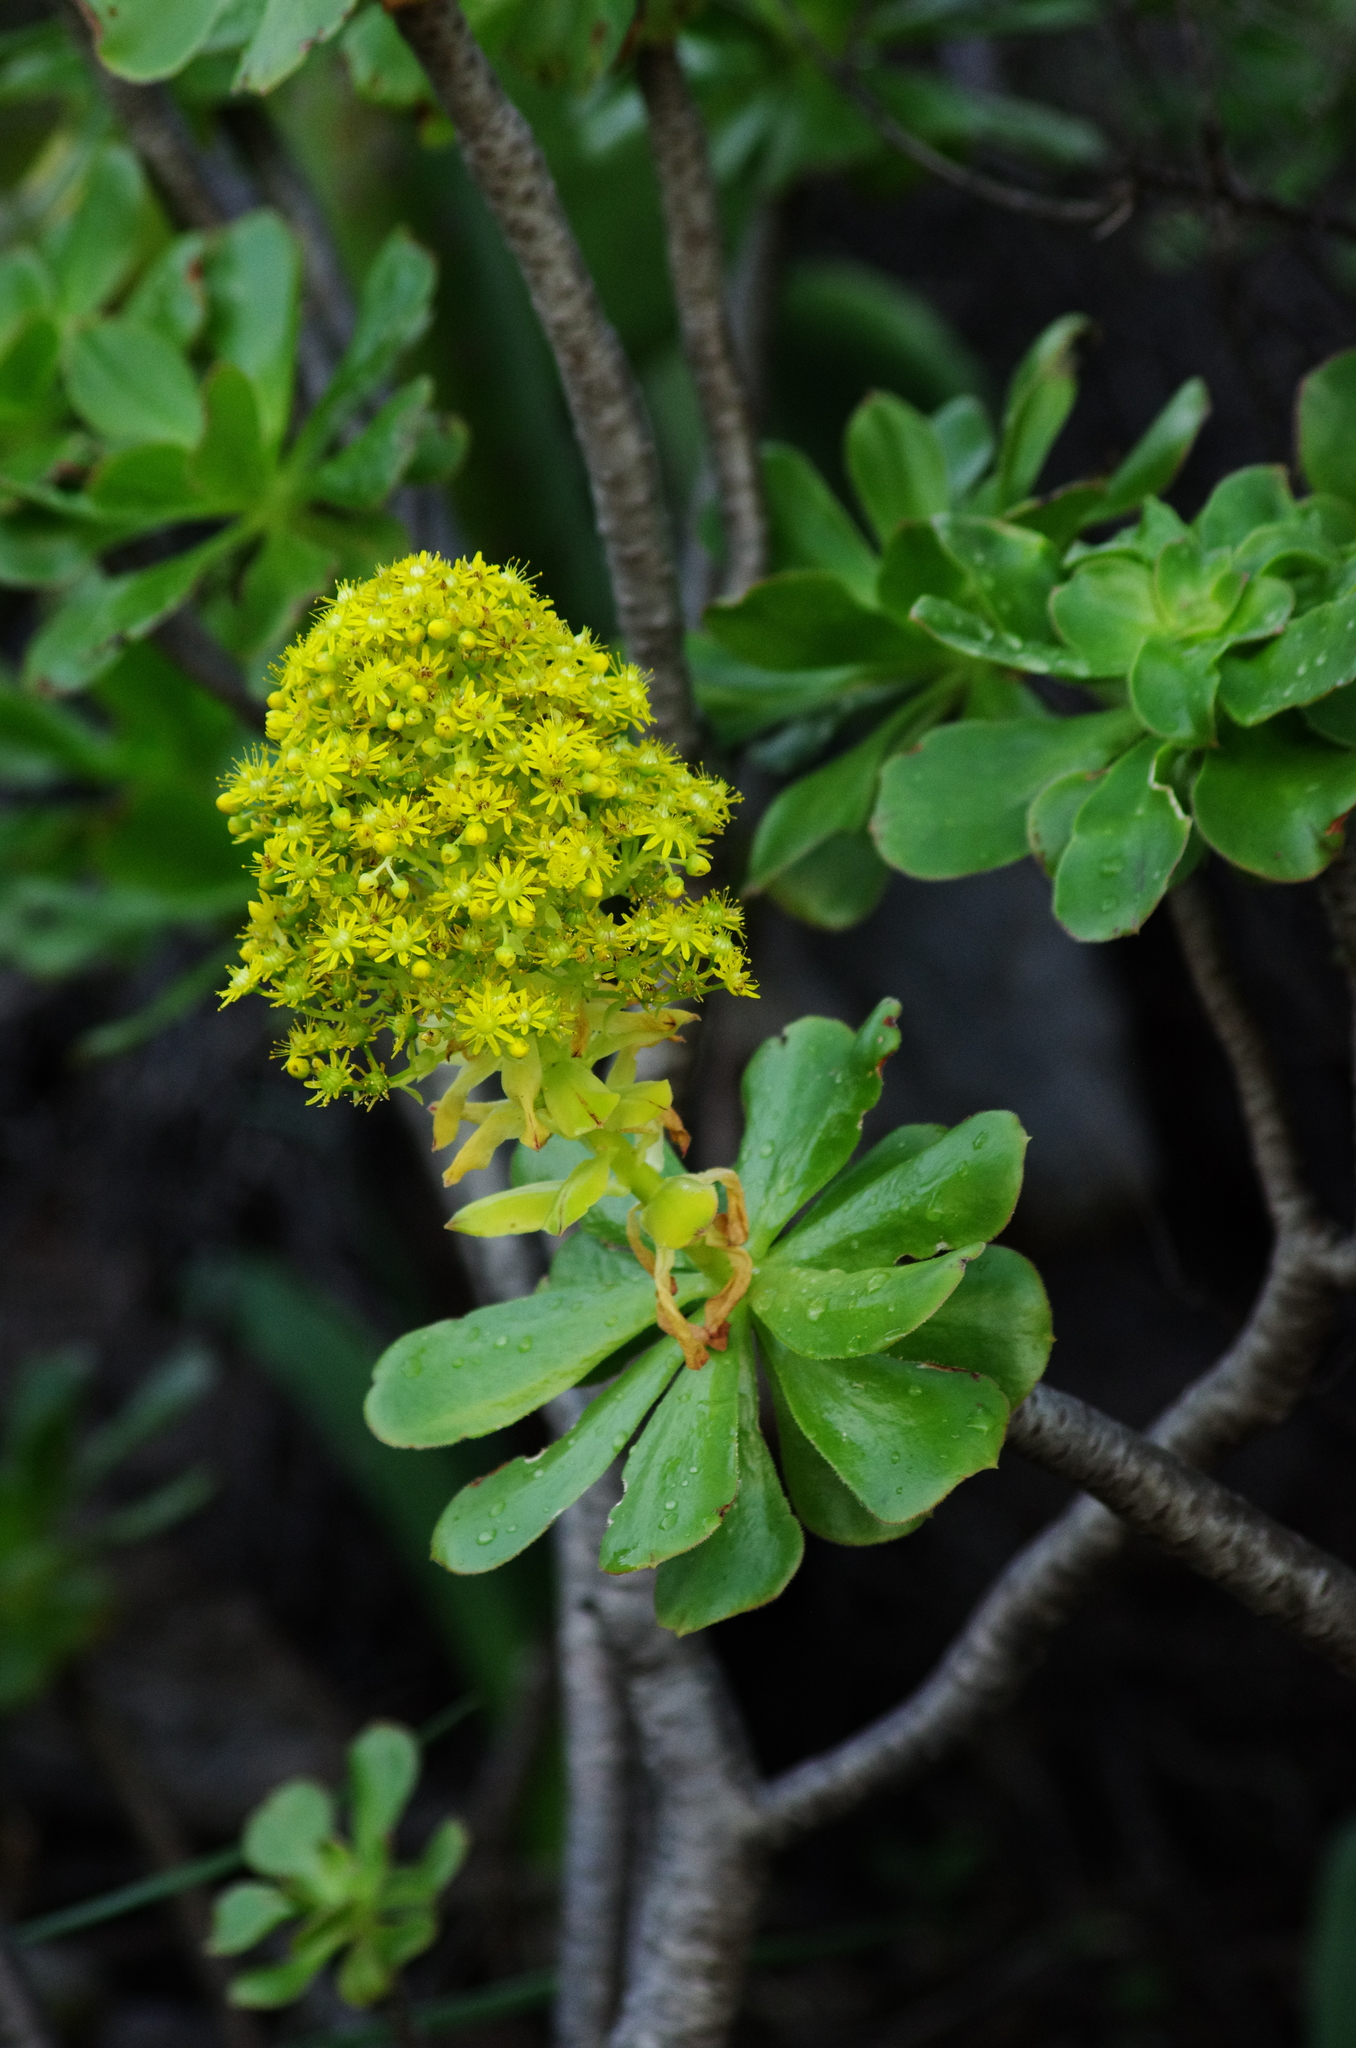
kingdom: Plantae
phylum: Tracheophyta
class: Magnoliopsida
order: Saxifragales
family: Crassulaceae
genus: Aeonium
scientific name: Aeonium arboreum
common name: Tree aeonium
